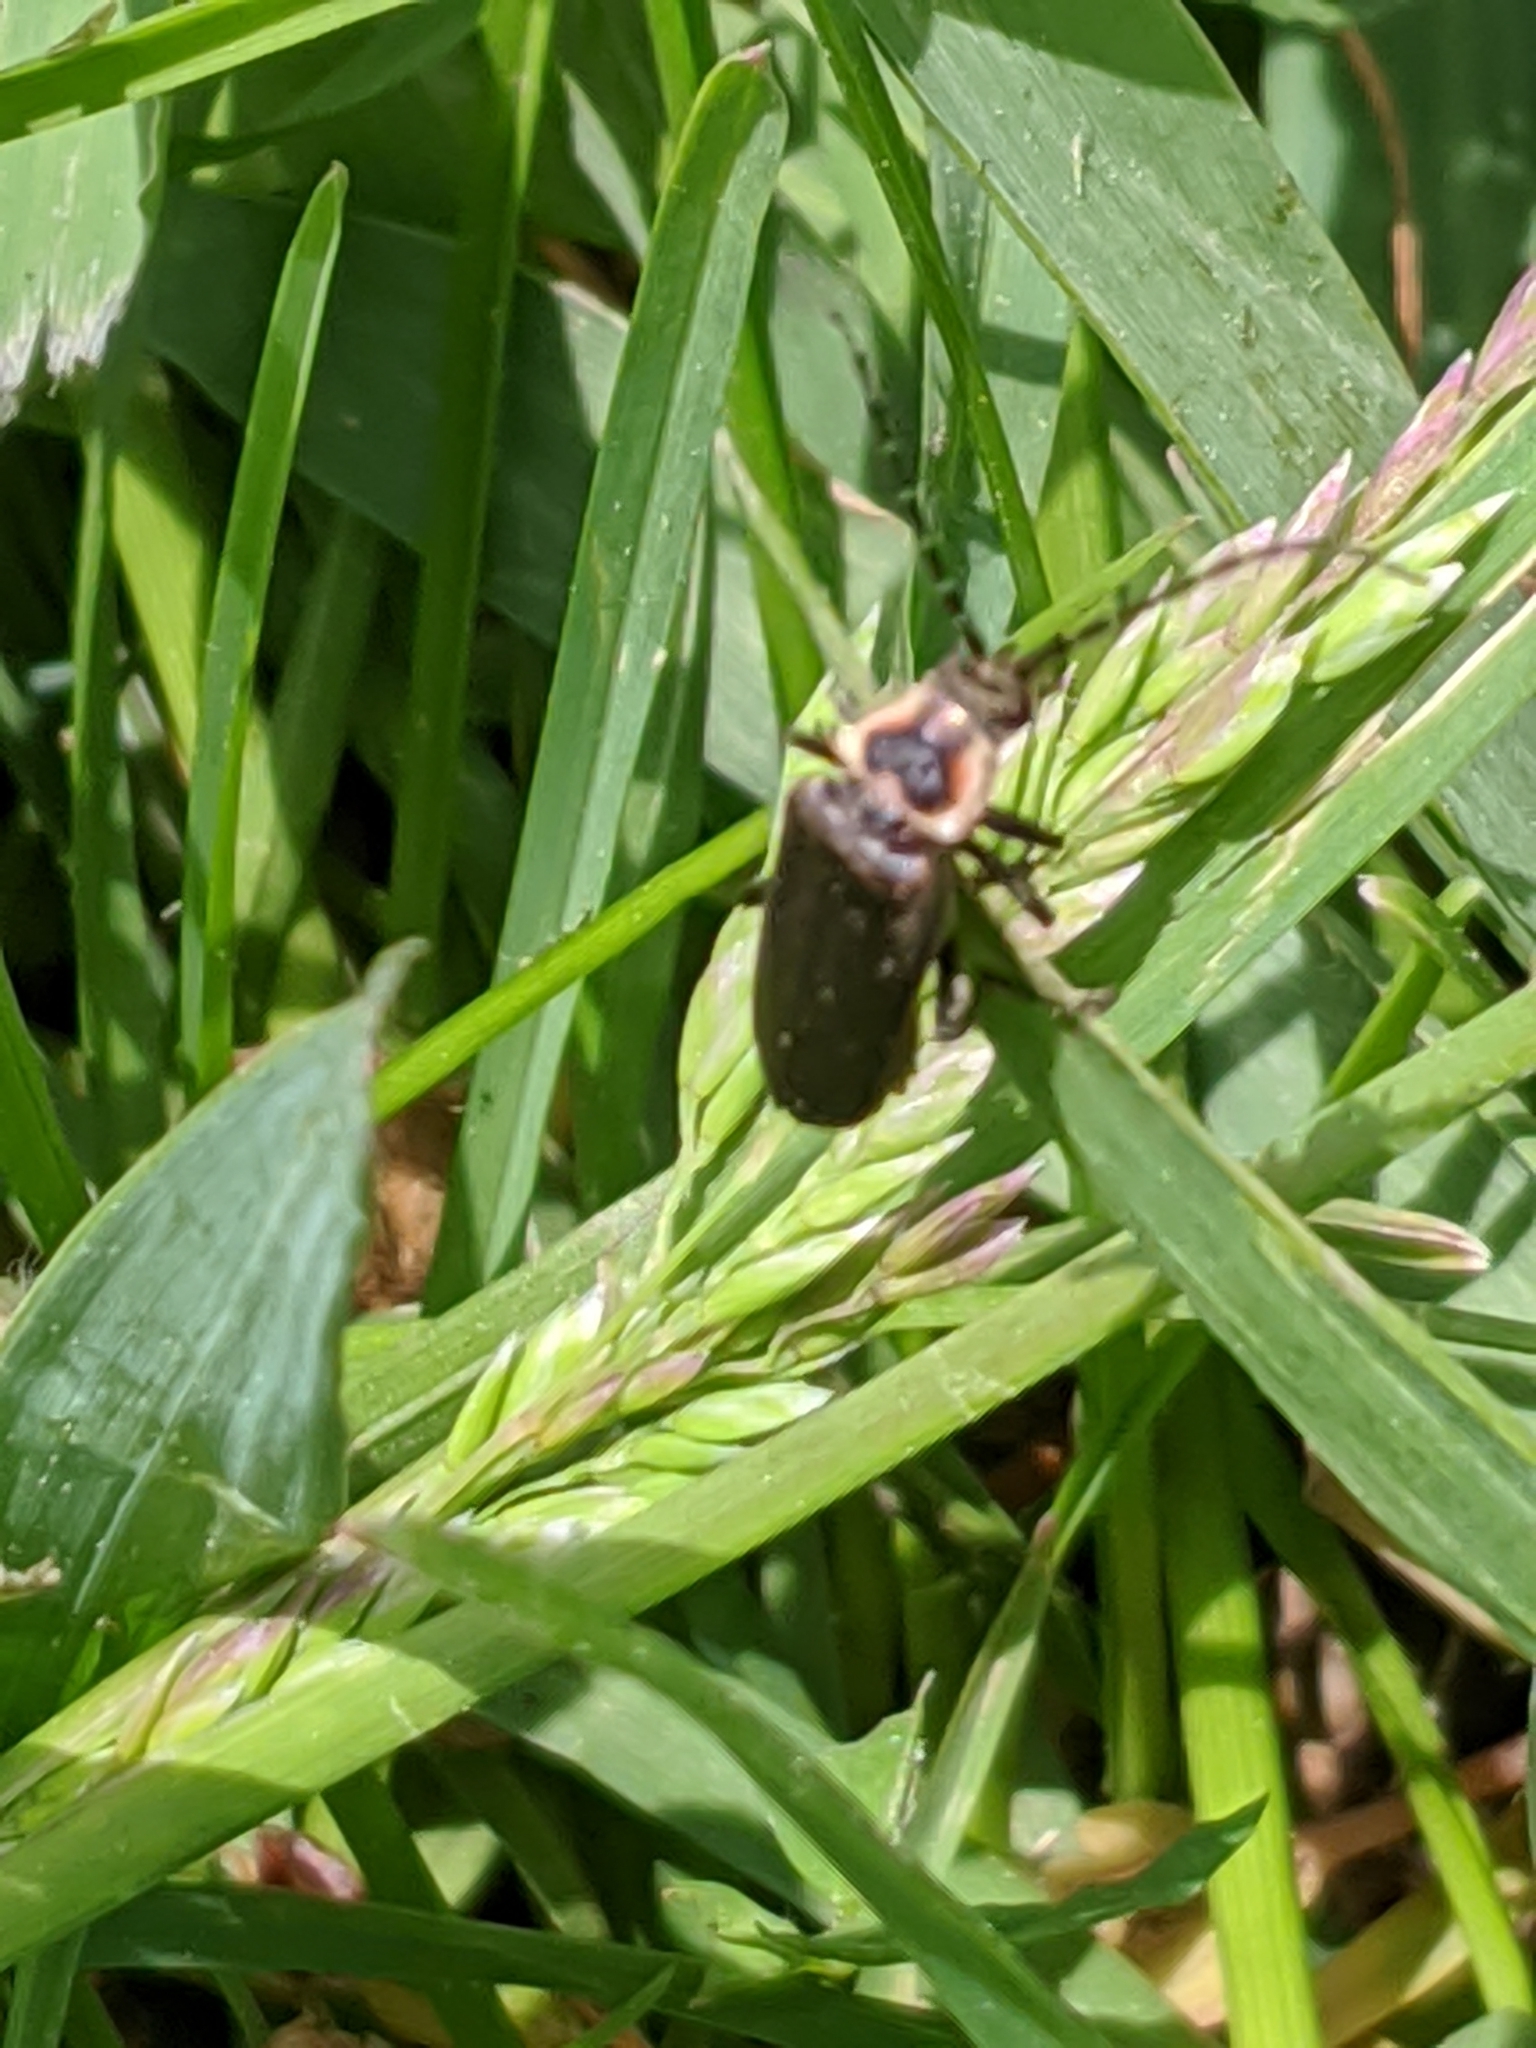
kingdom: Animalia
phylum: Arthropoda
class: Insecta
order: Coleoptera
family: Cantharidae
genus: Atalantycha
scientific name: Atalantycha dentigera
